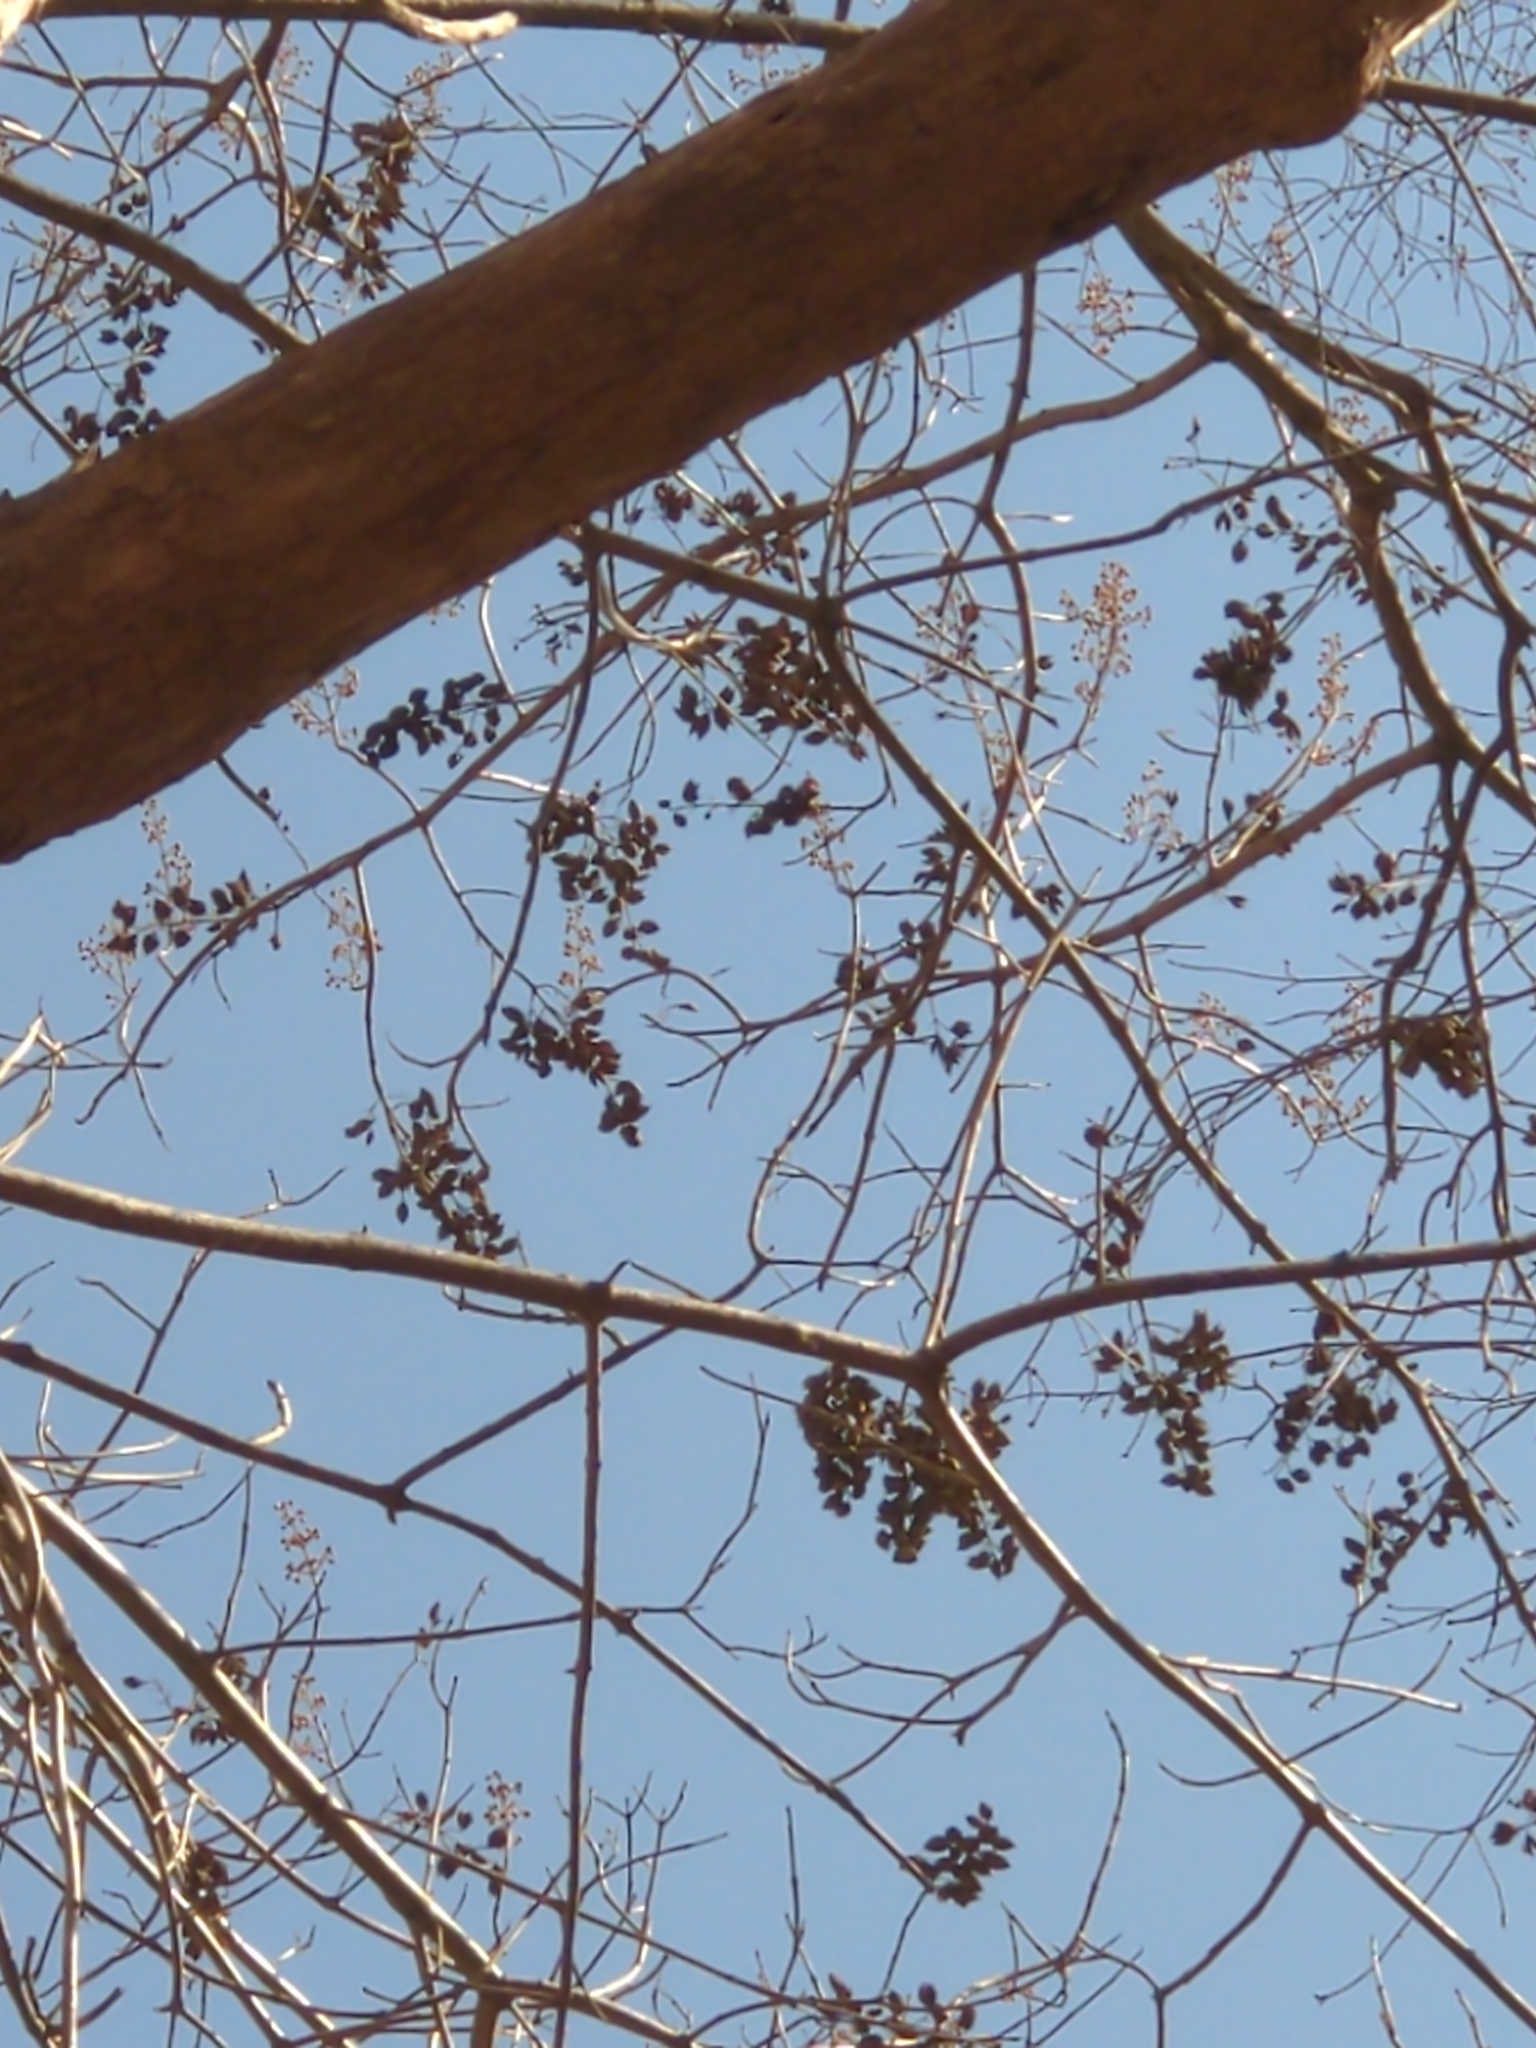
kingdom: Plantae
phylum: Tracheophyta
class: Magnoliopsida
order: Lamiales
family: Paulowniaceae
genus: Paulownia
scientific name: Paulownia tomentosa
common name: Foxglove-tree
